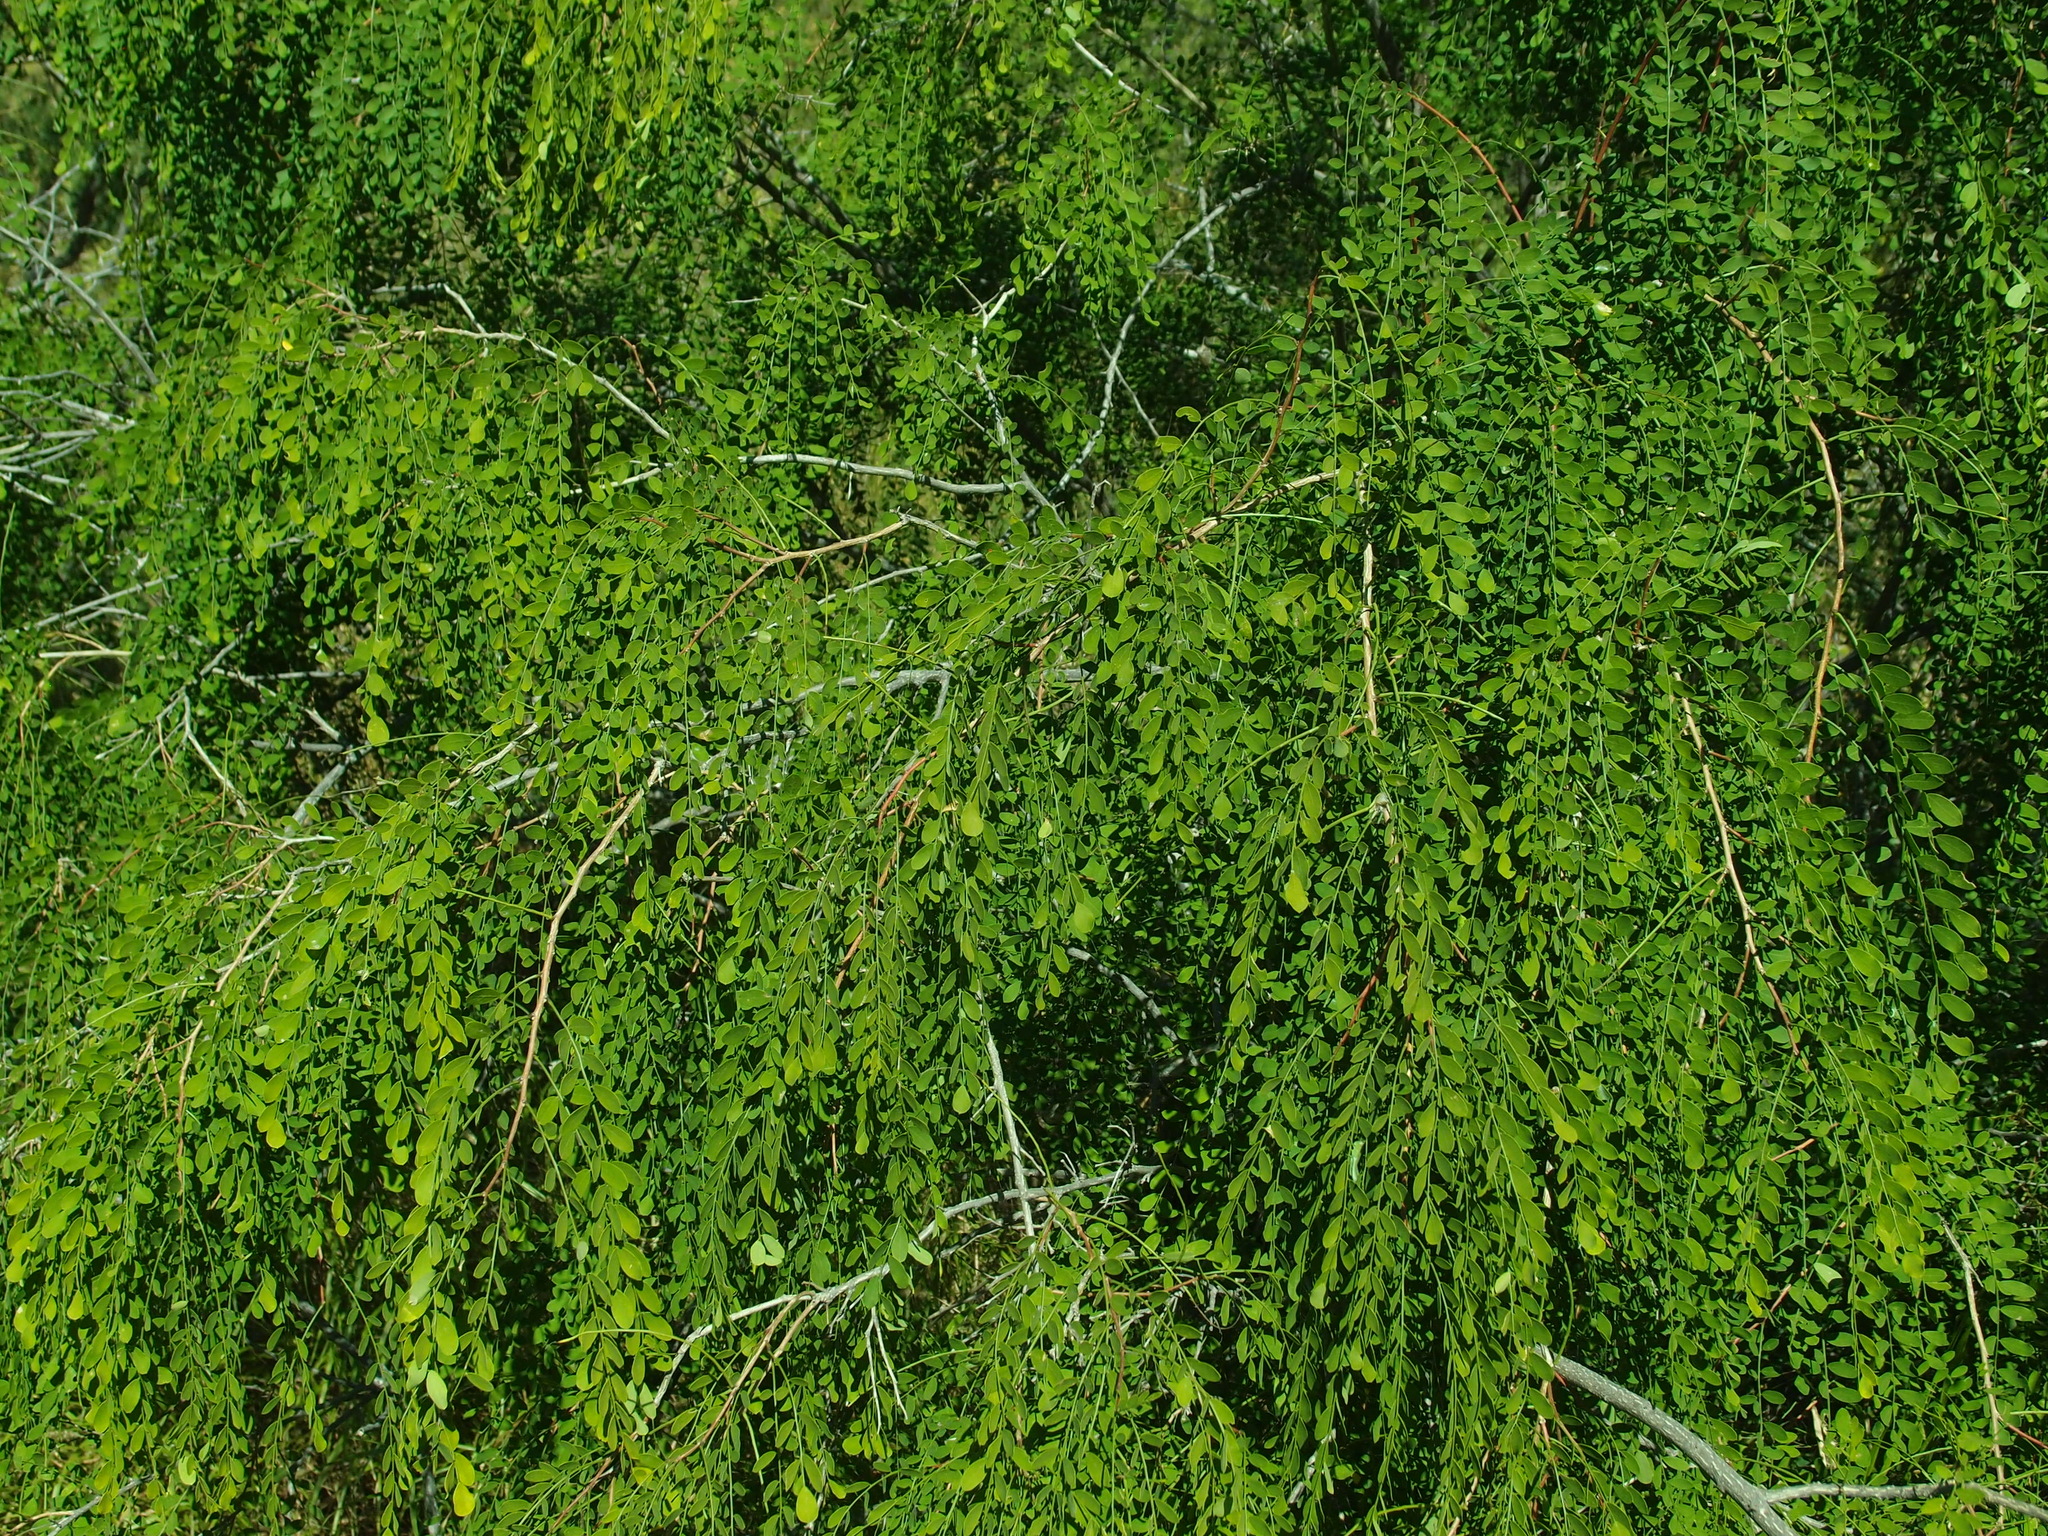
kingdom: Plantae
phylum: Tracheophyta
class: Magnoliopsida
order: Fabales
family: Fabaceae
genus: Diphysa
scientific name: Diphysa occidentalis
